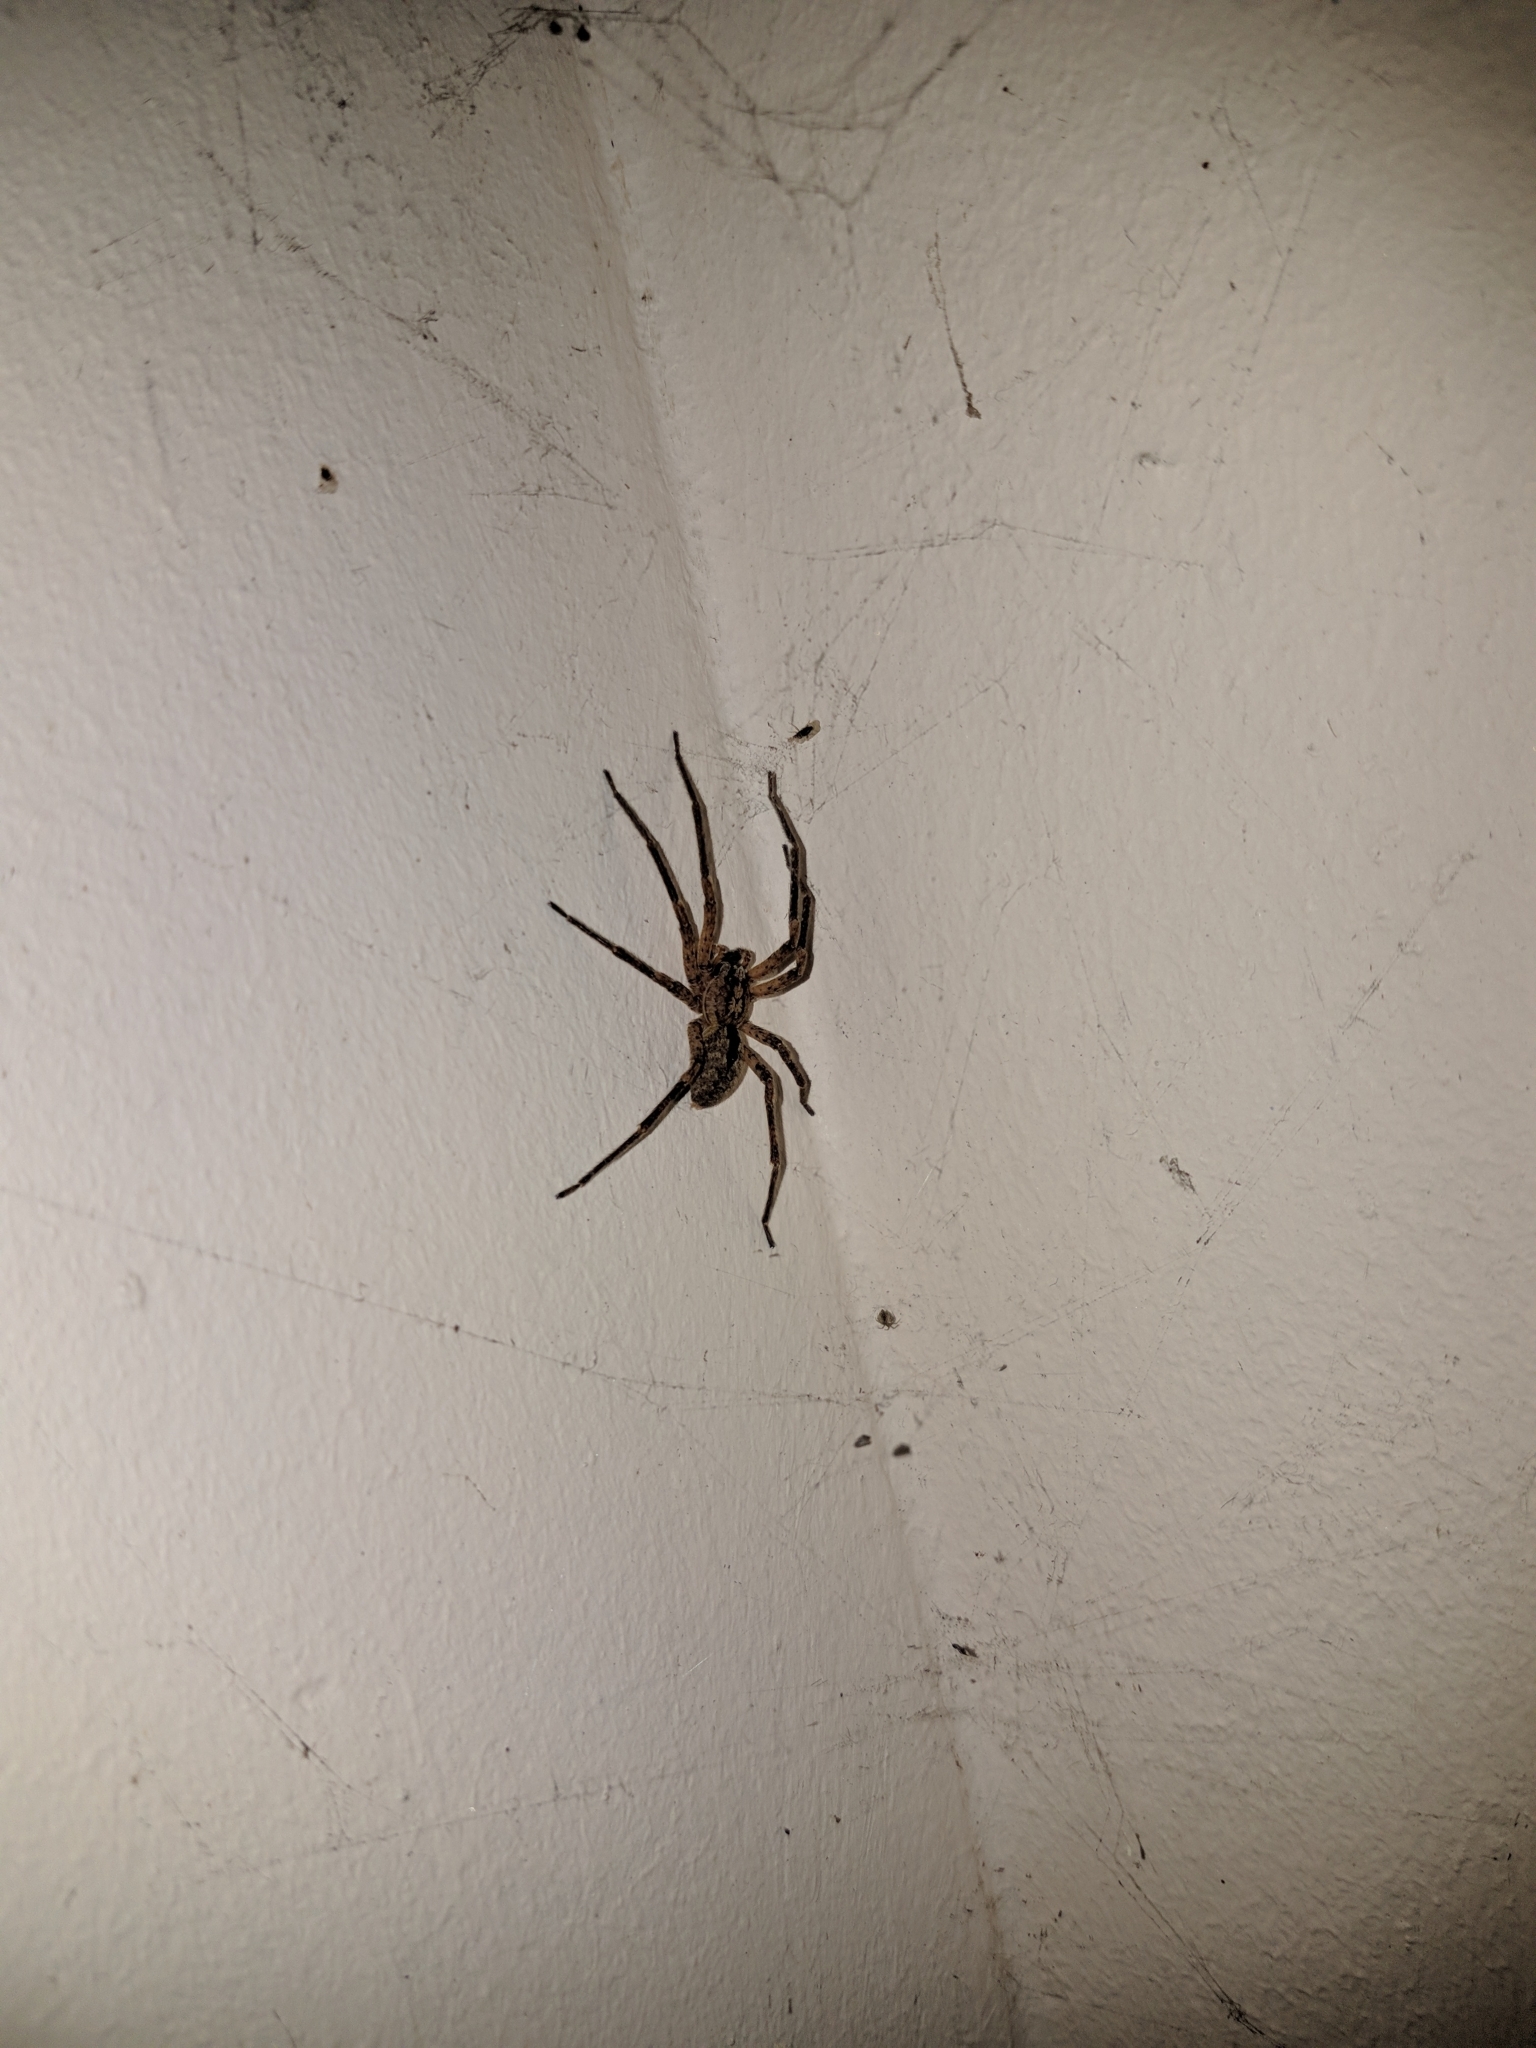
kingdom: Animalia
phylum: Arthropoda
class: Arachnida
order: Araneae
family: Zoropsidae
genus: Zoropsis
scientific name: Zoropsis spinimana
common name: Zoropsid spider
